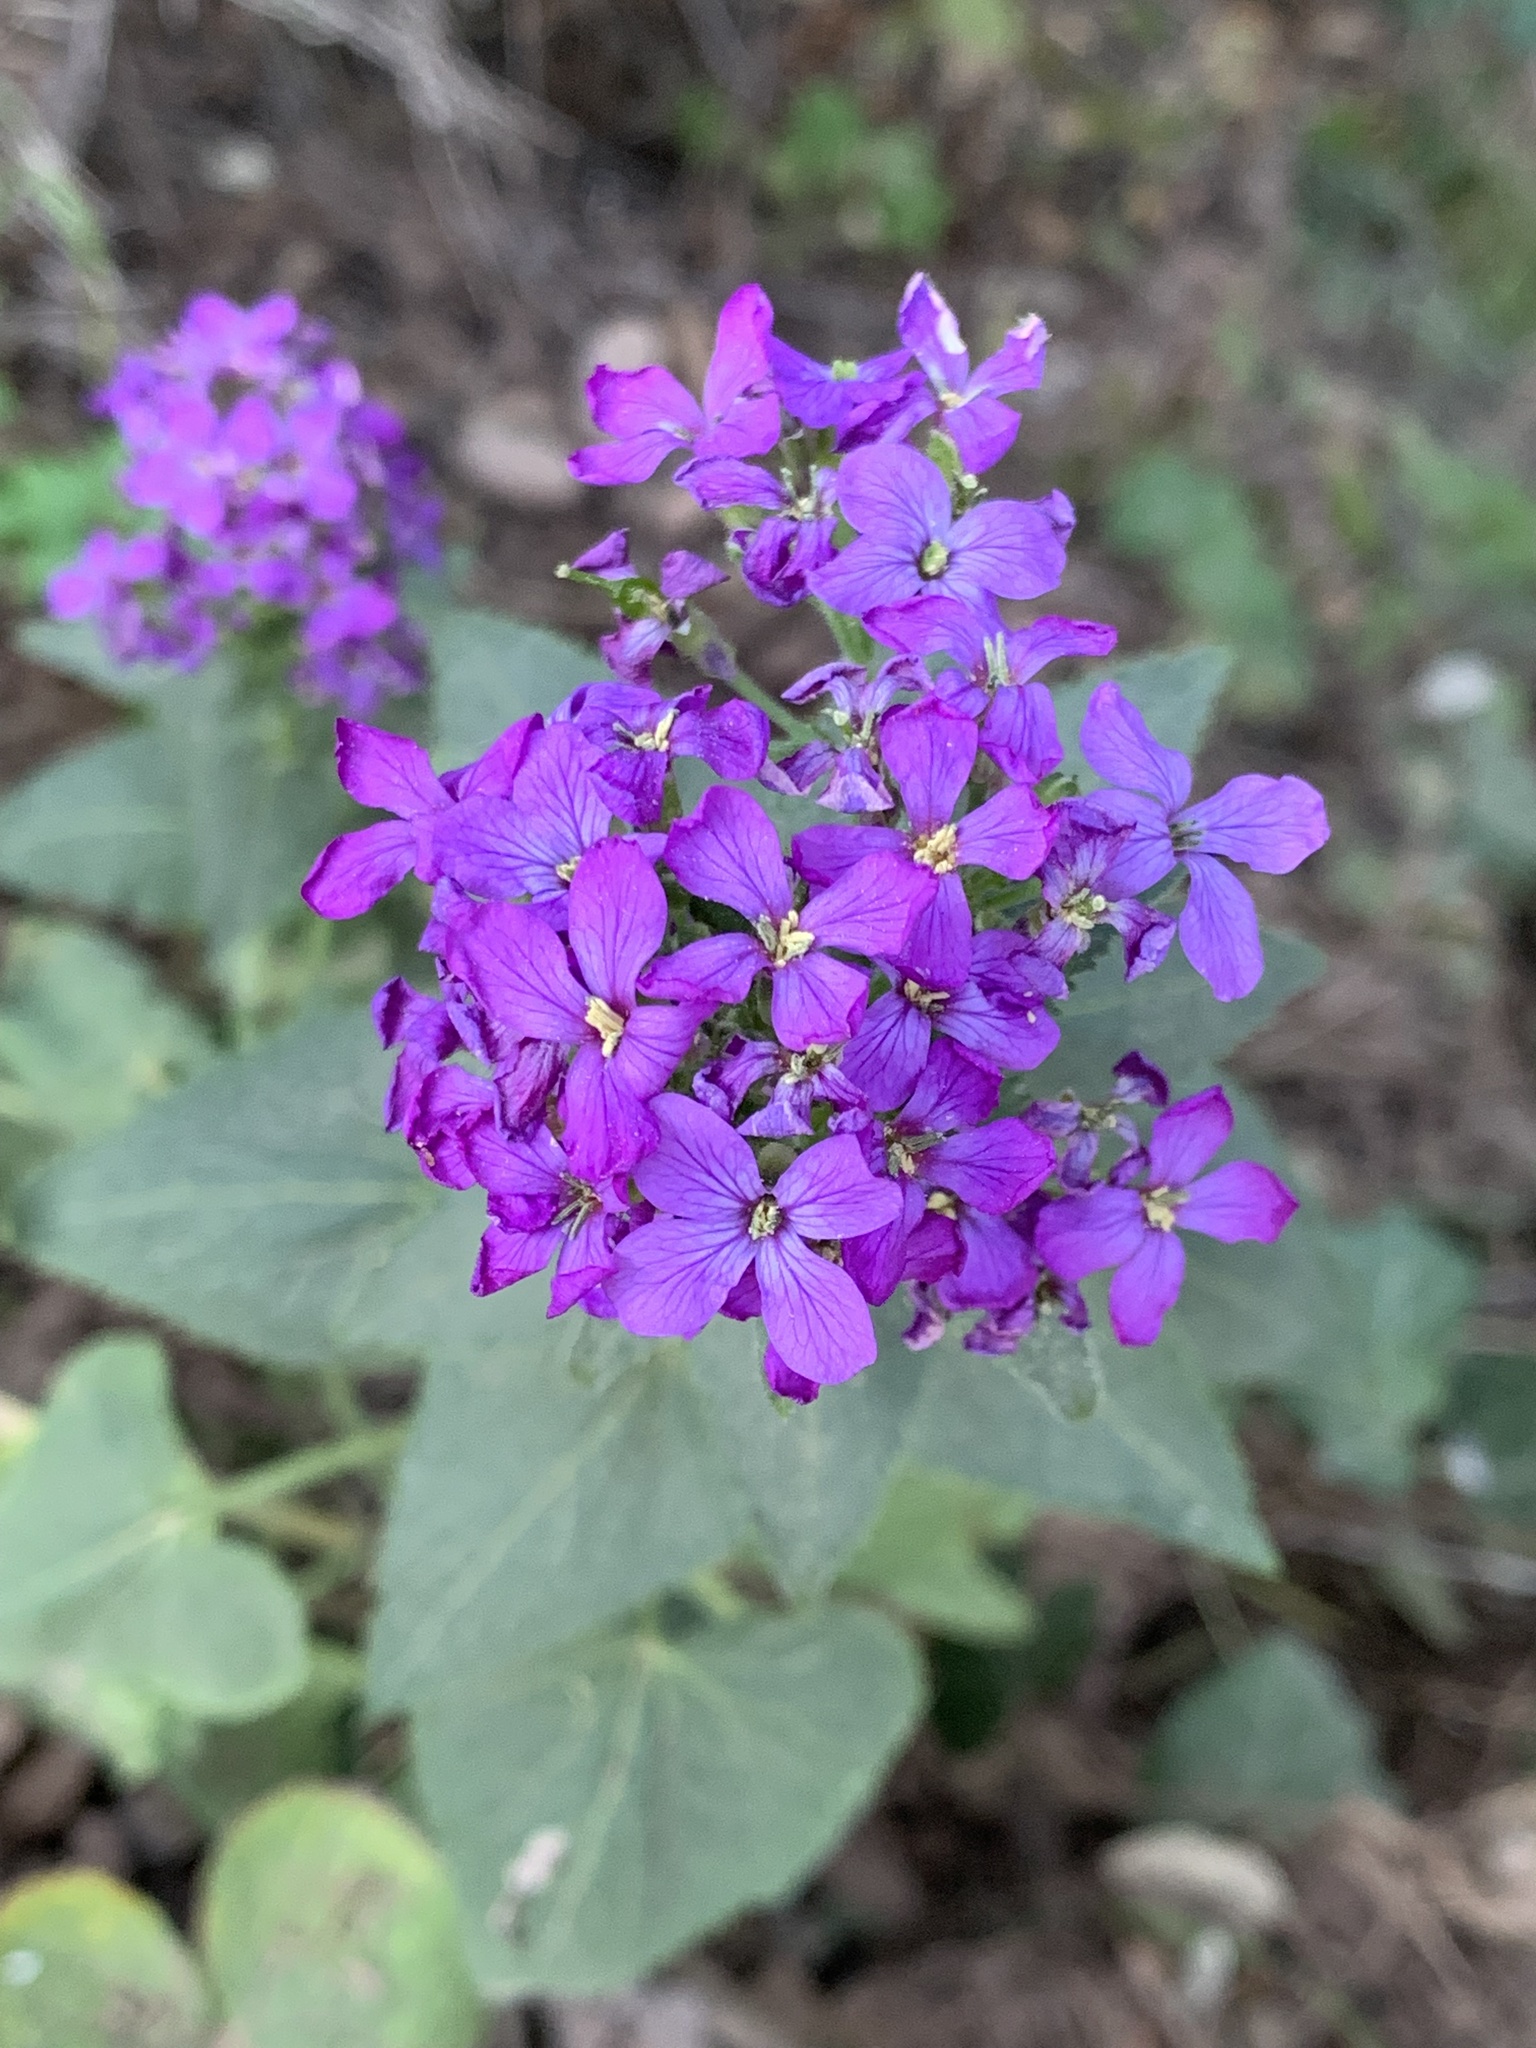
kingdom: Plantae
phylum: Tracheophyta
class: Magnoliopsida
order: Brassicales
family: Brassicaceae
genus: Lunaria
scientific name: Lunaria annua
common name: Honesty
